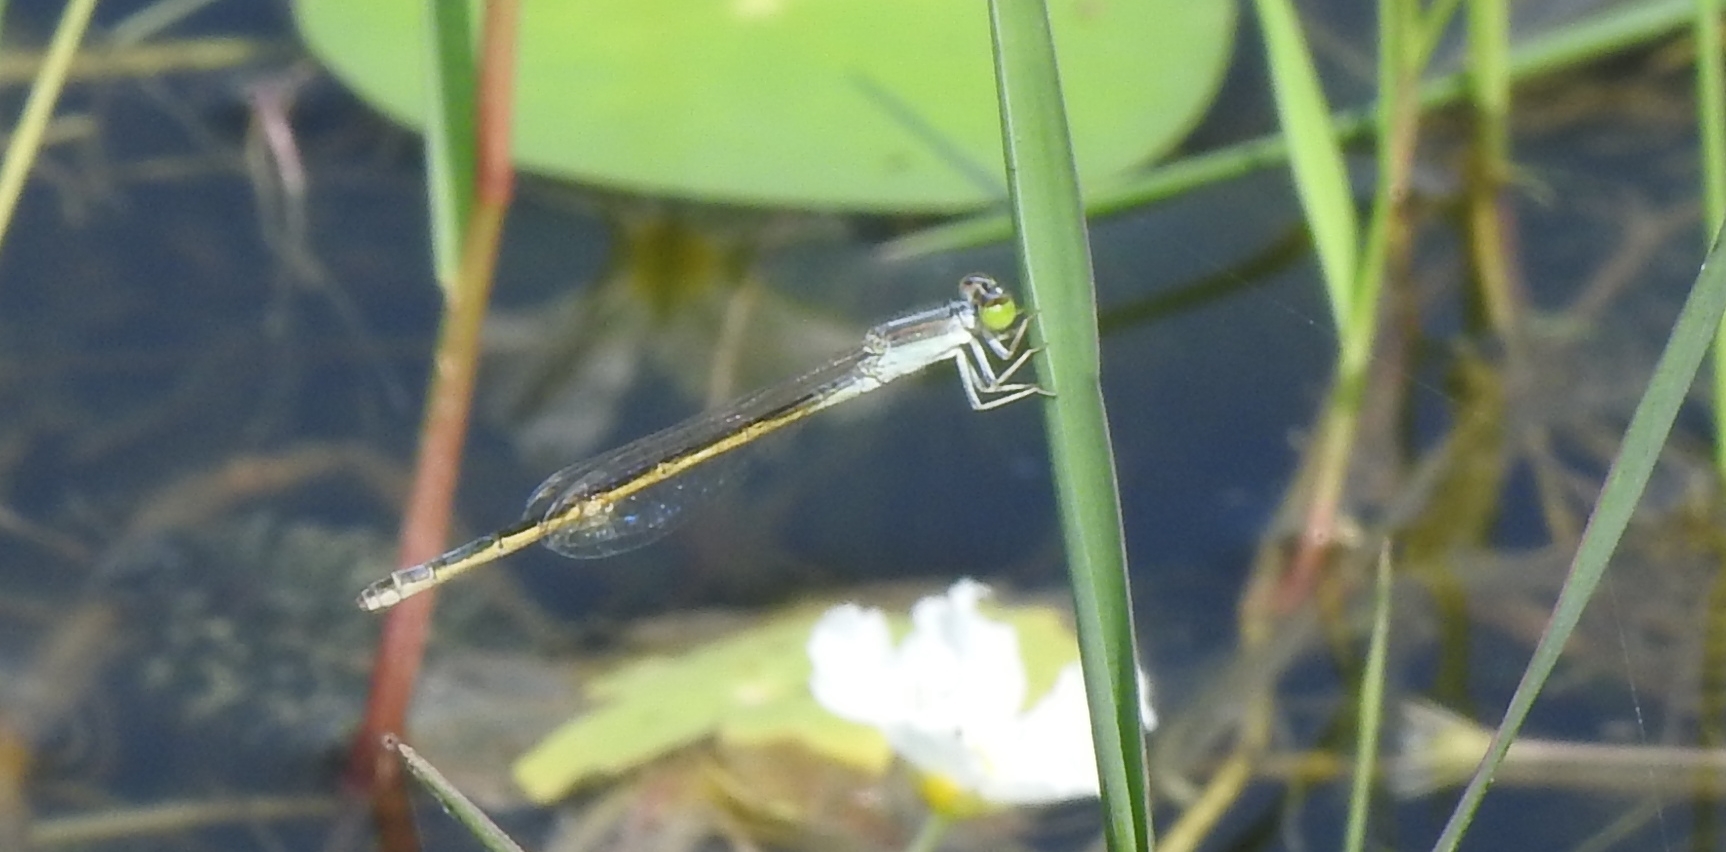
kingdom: Animalia
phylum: Arthropoda
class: Insecta
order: Odonata
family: Coenagrionidae
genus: Ischnura
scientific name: Ischnura rubilio
